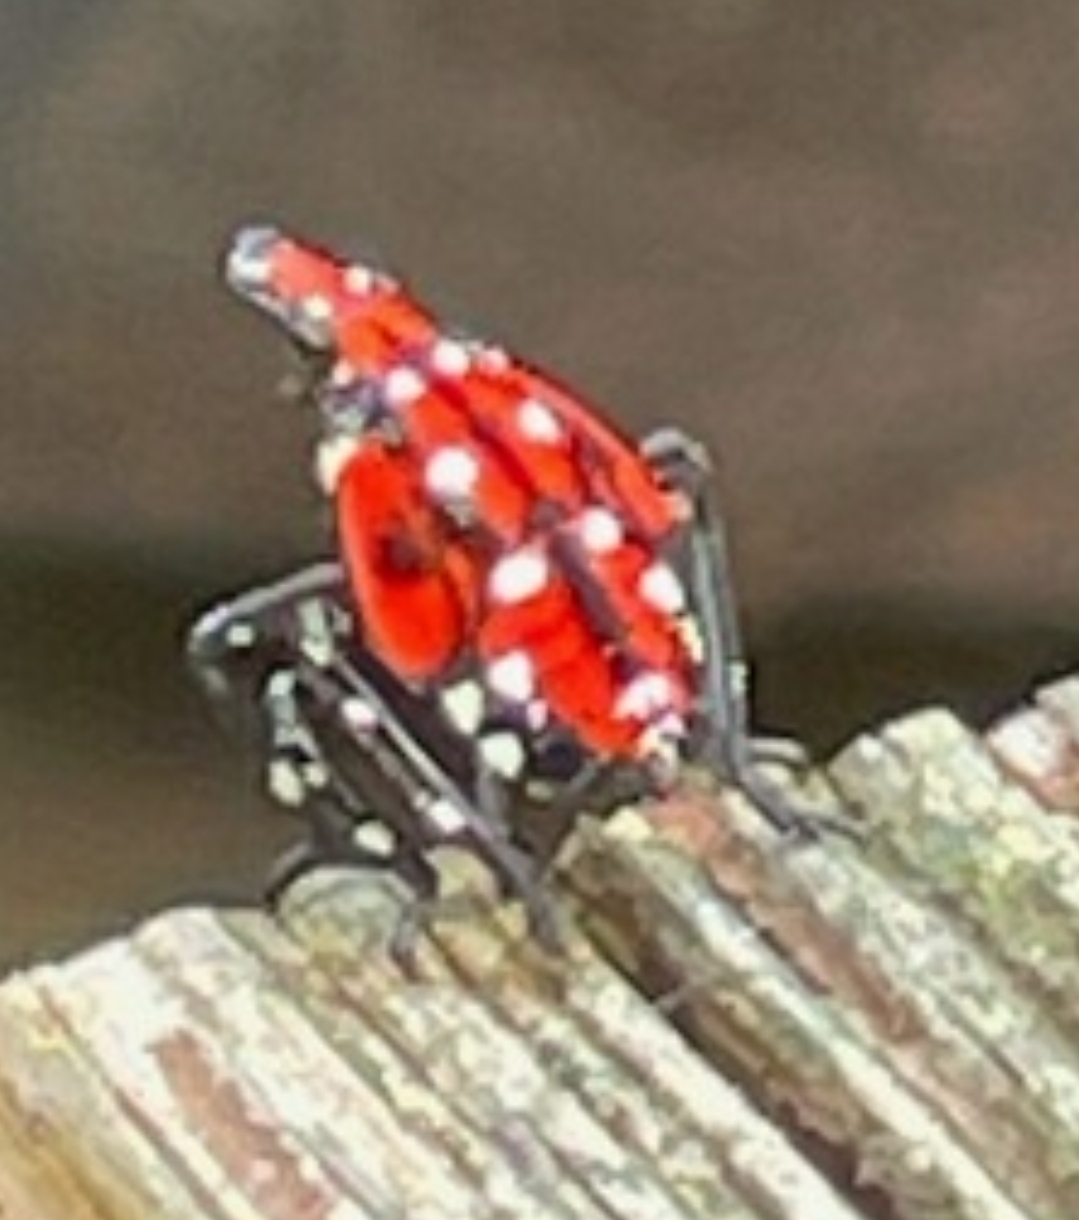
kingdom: Animalia
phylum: Arthropoda
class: Insecta
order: Hemiptera
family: Fulgoridae
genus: Lycorma
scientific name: Lycorma delicatula
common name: Spotted lanternfly
